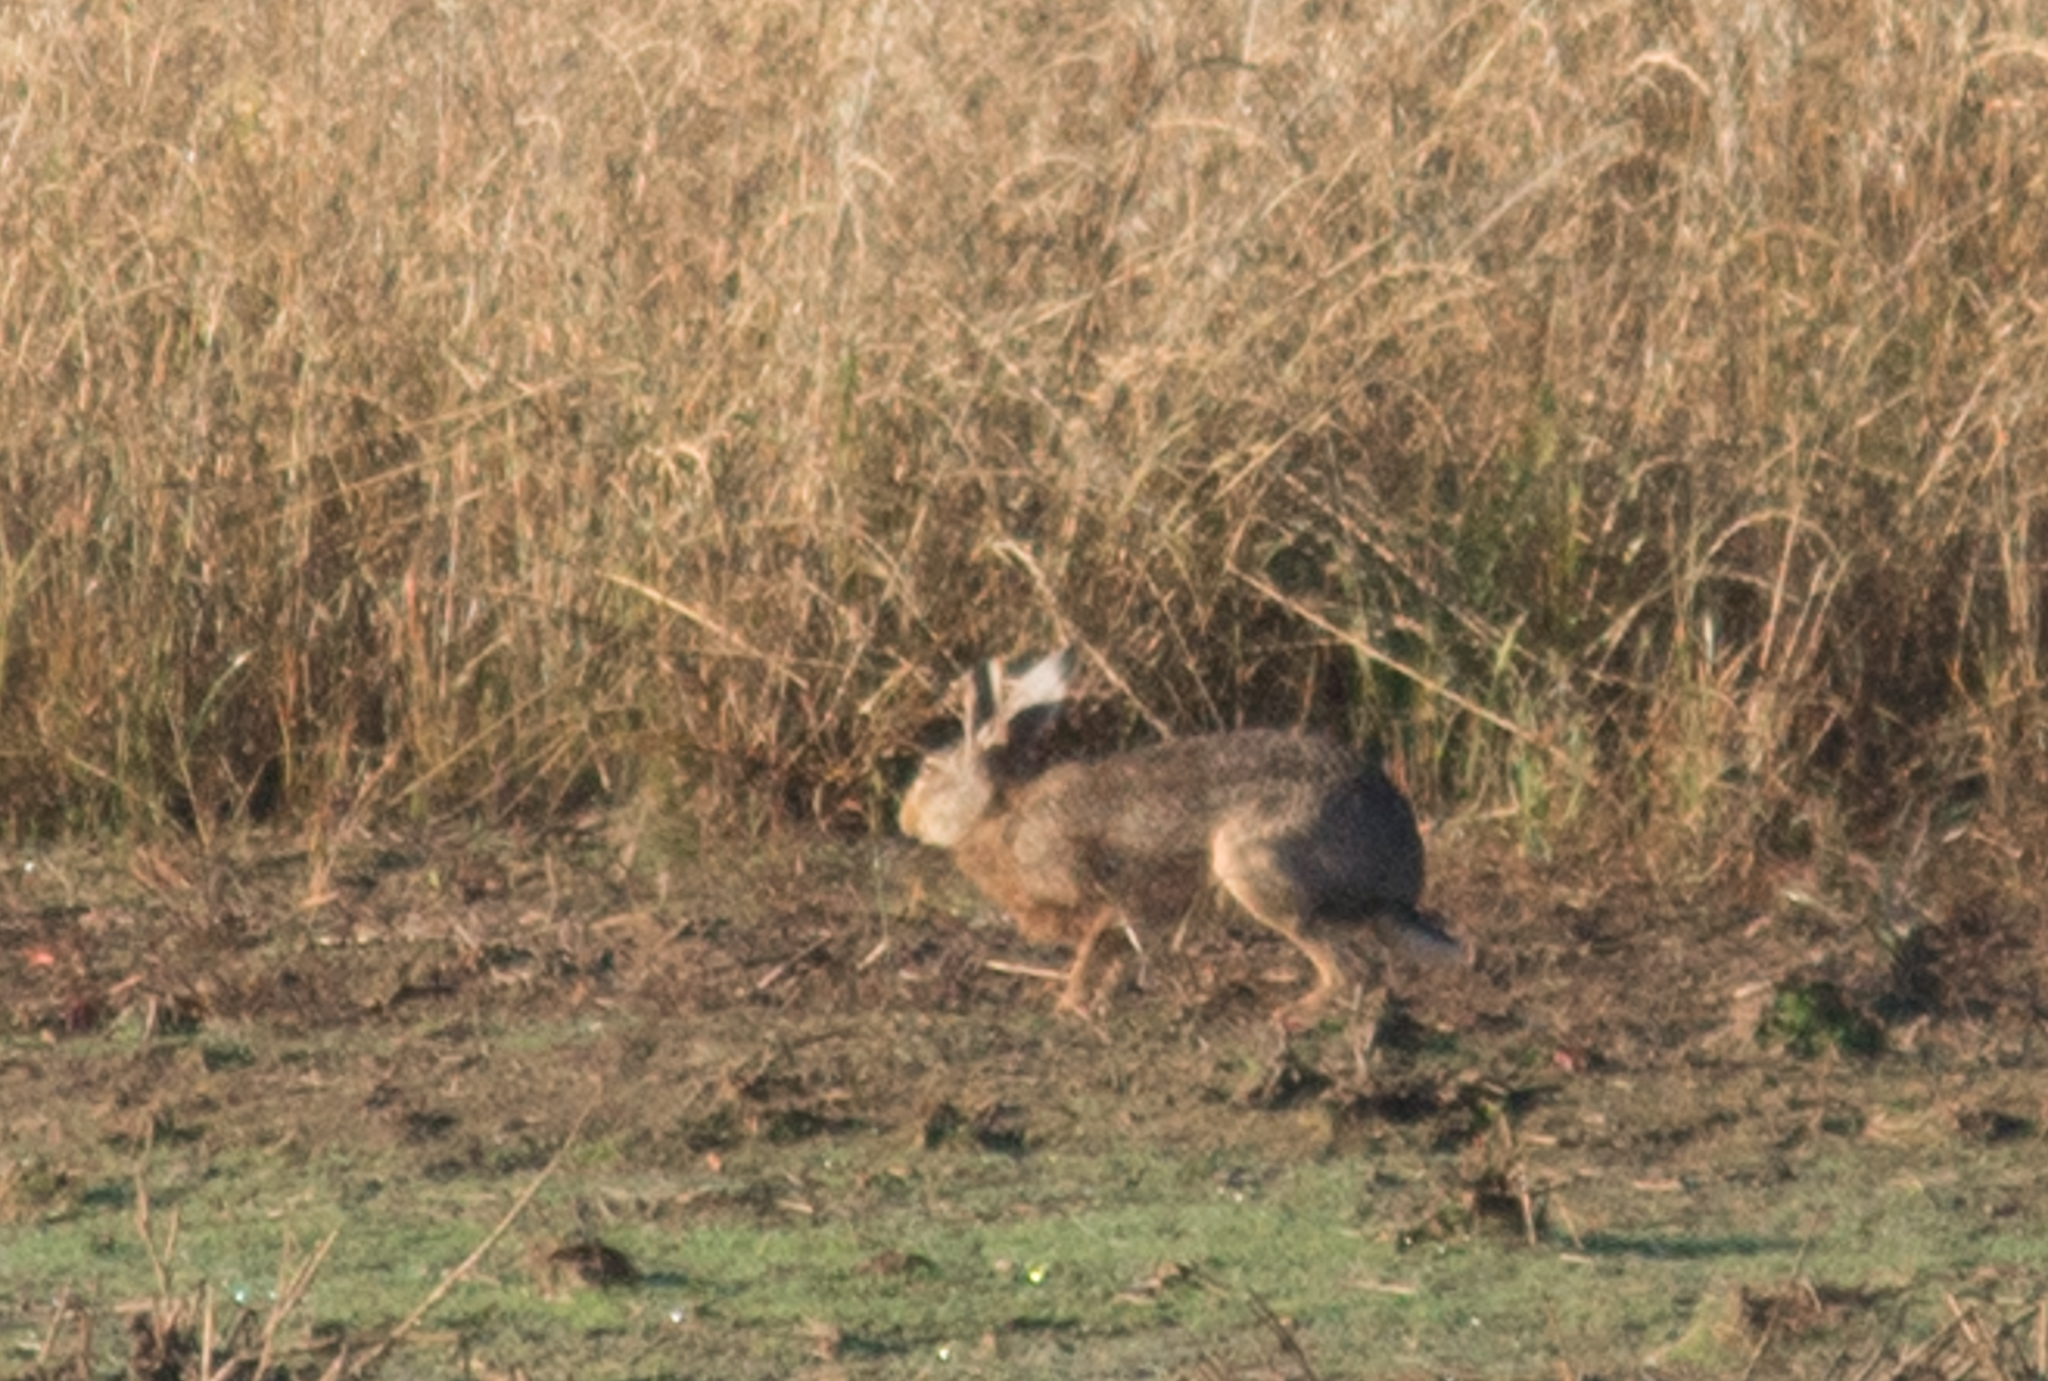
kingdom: Animalia
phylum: Chordata
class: Mammalia
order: Lagomorpha
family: Leporidae
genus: Lepus
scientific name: Lepus europaeus
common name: European hare
